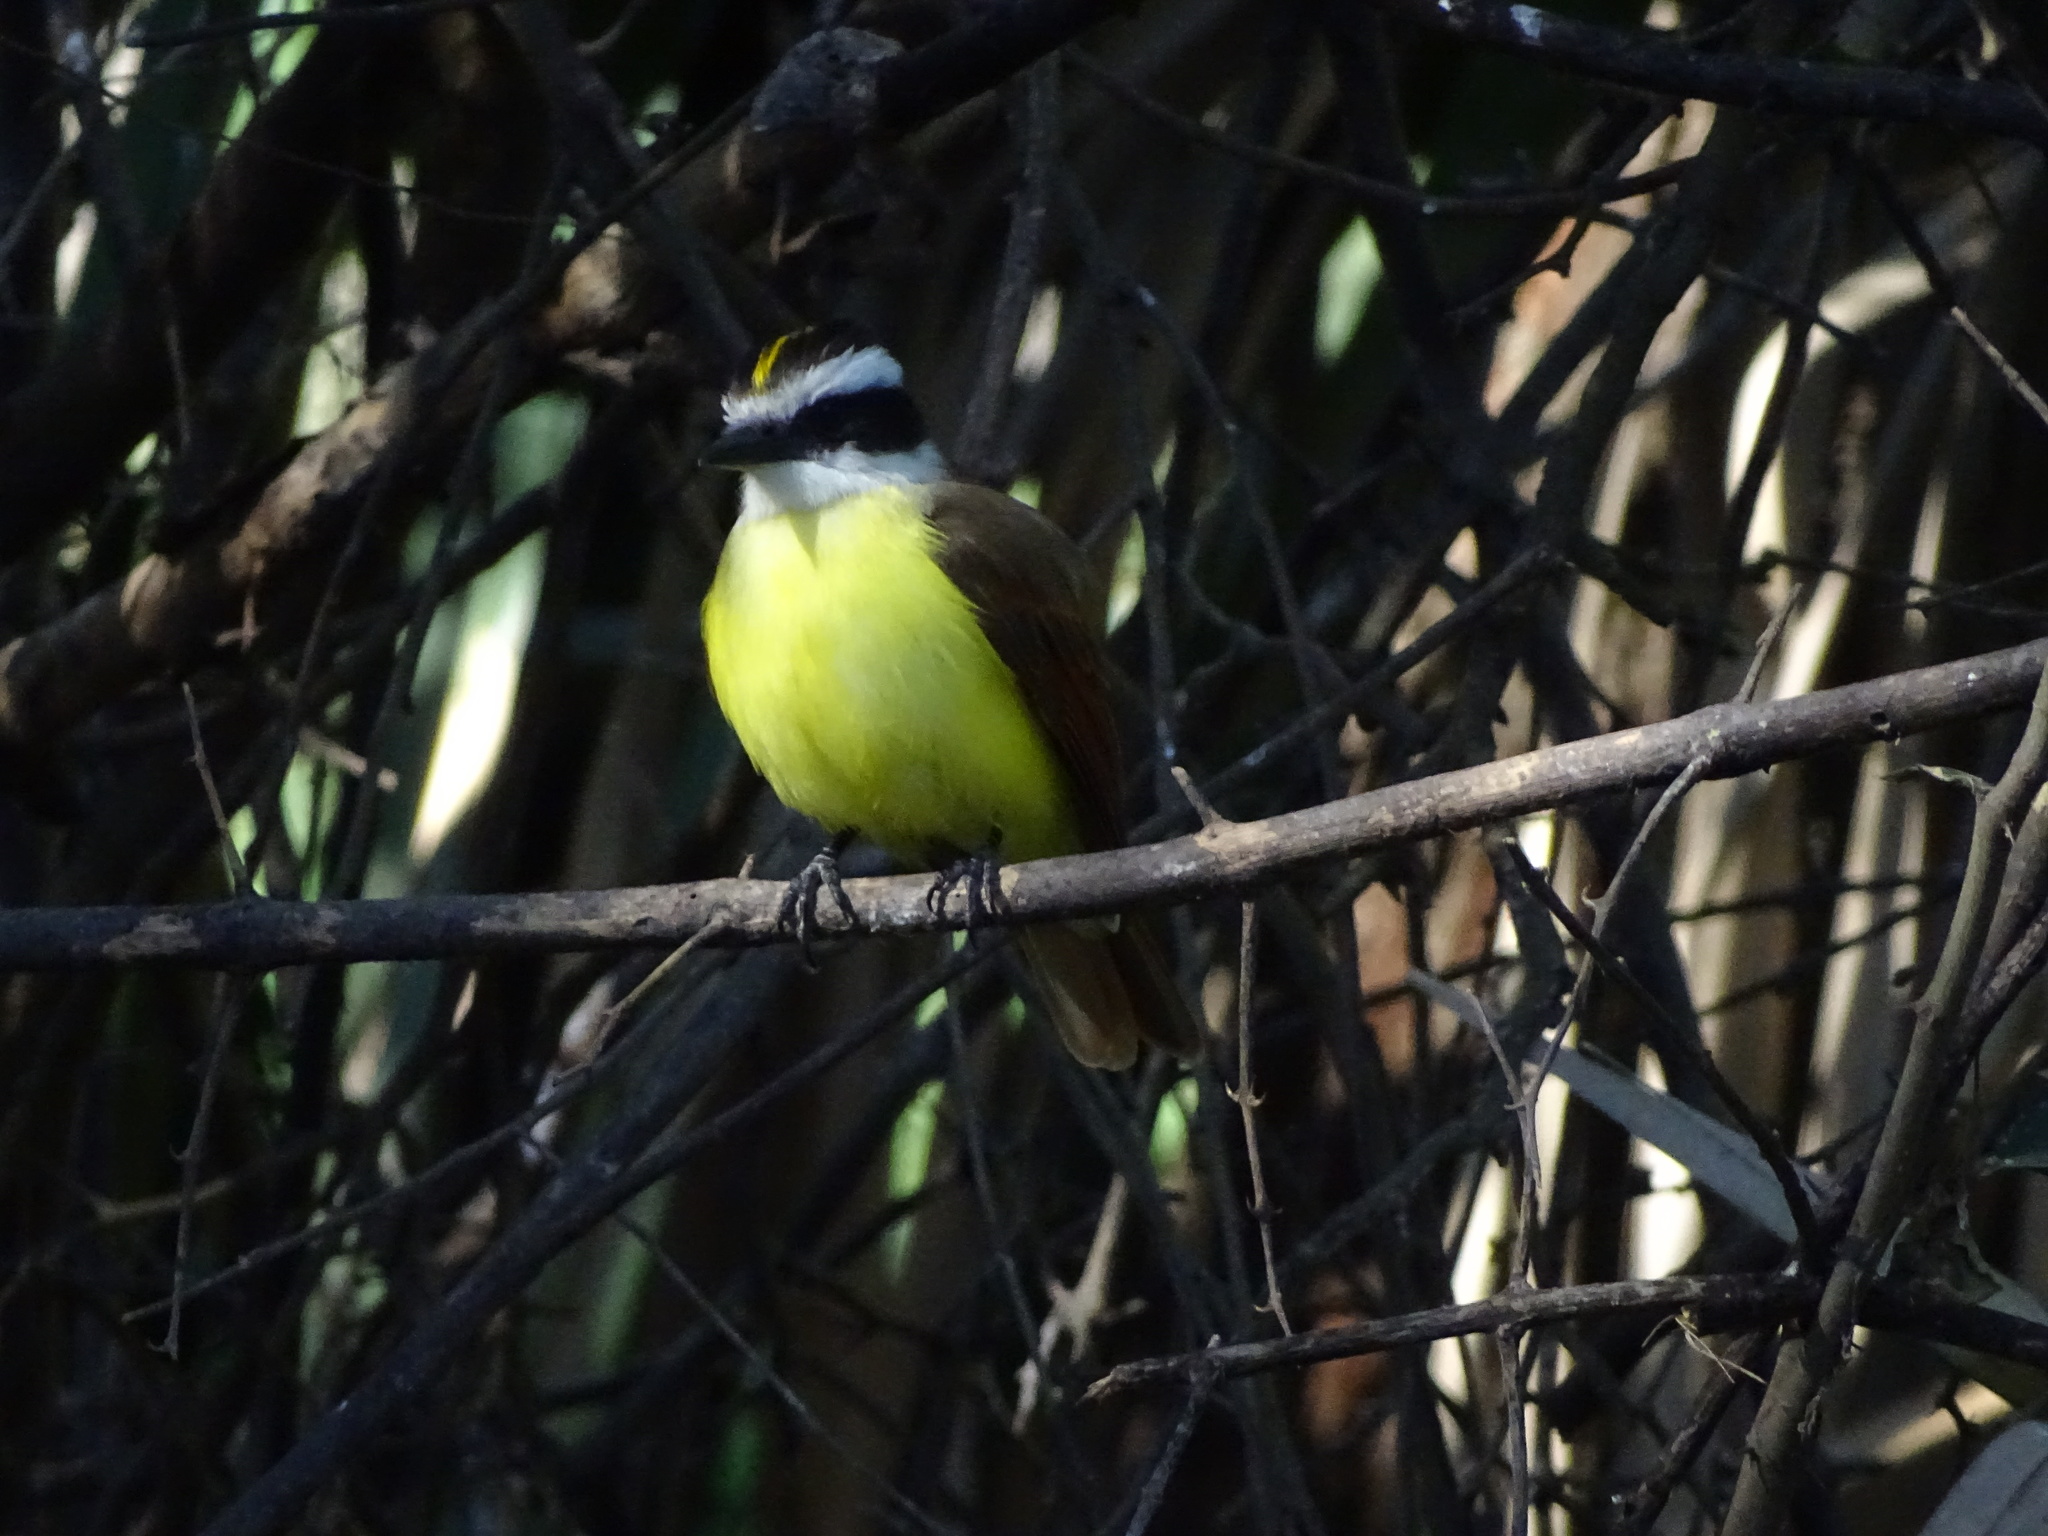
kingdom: Animalia
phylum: Chordata
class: Aves
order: Passeriformes
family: Tyrannidae
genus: Pitangus
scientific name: Pitangus sulphuratus
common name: Great kiskadee
